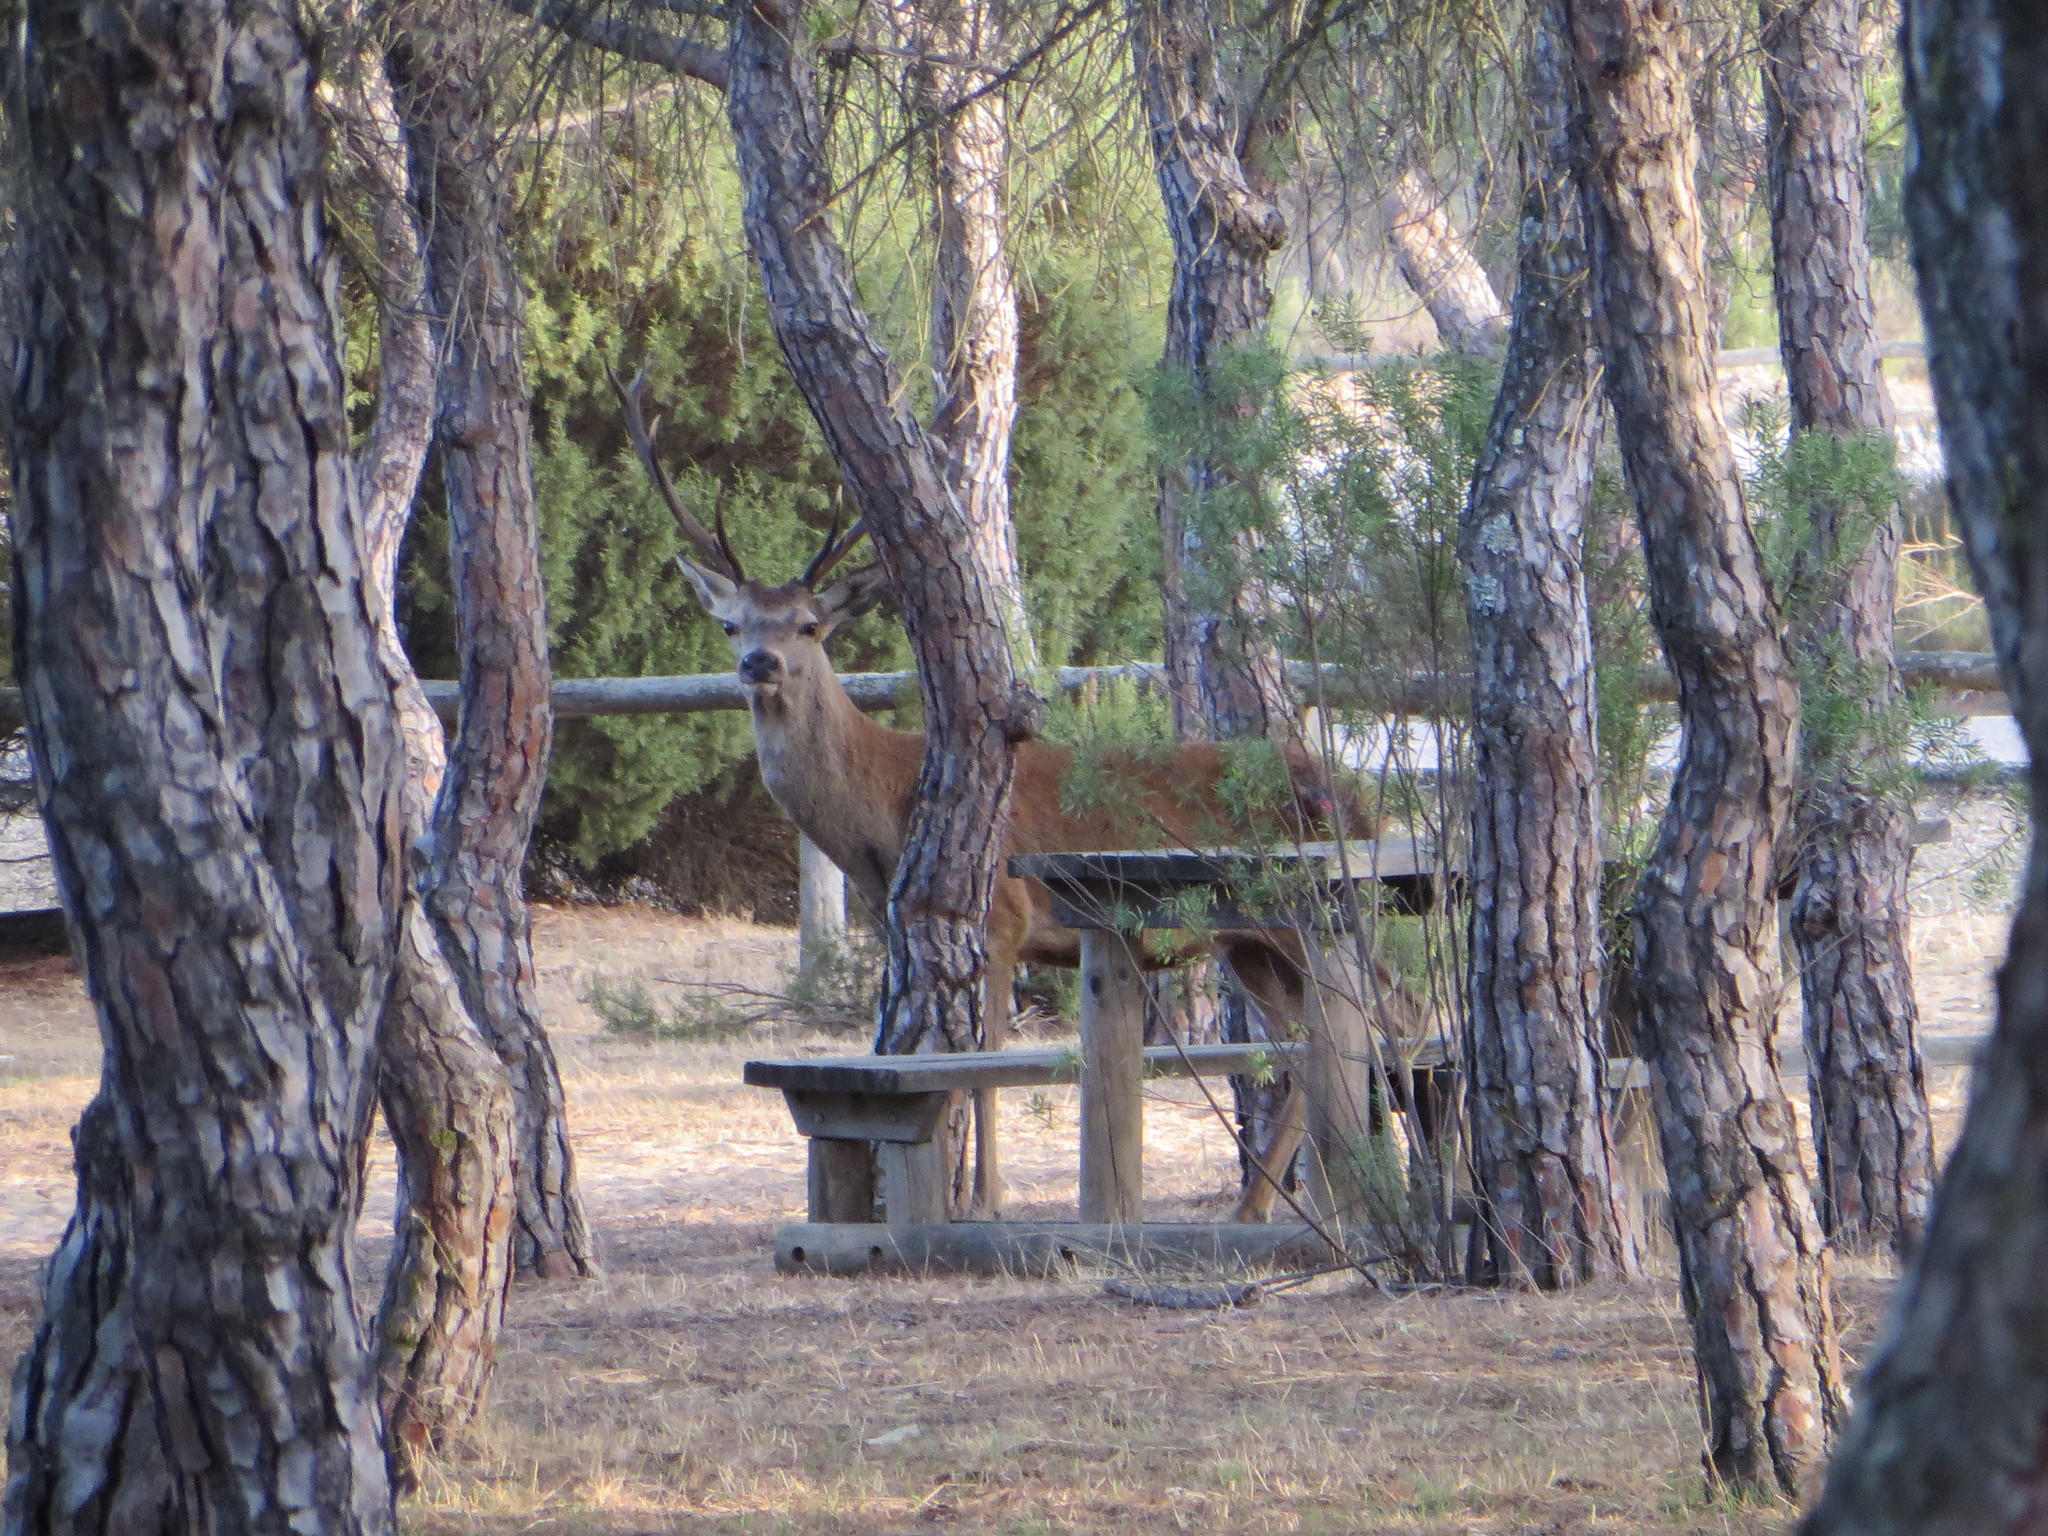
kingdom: Animalia
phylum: Chordata
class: Mammalia
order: Artiodactyla
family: Cervidae
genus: Cervus
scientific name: Cervus elaphus
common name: Red deer
